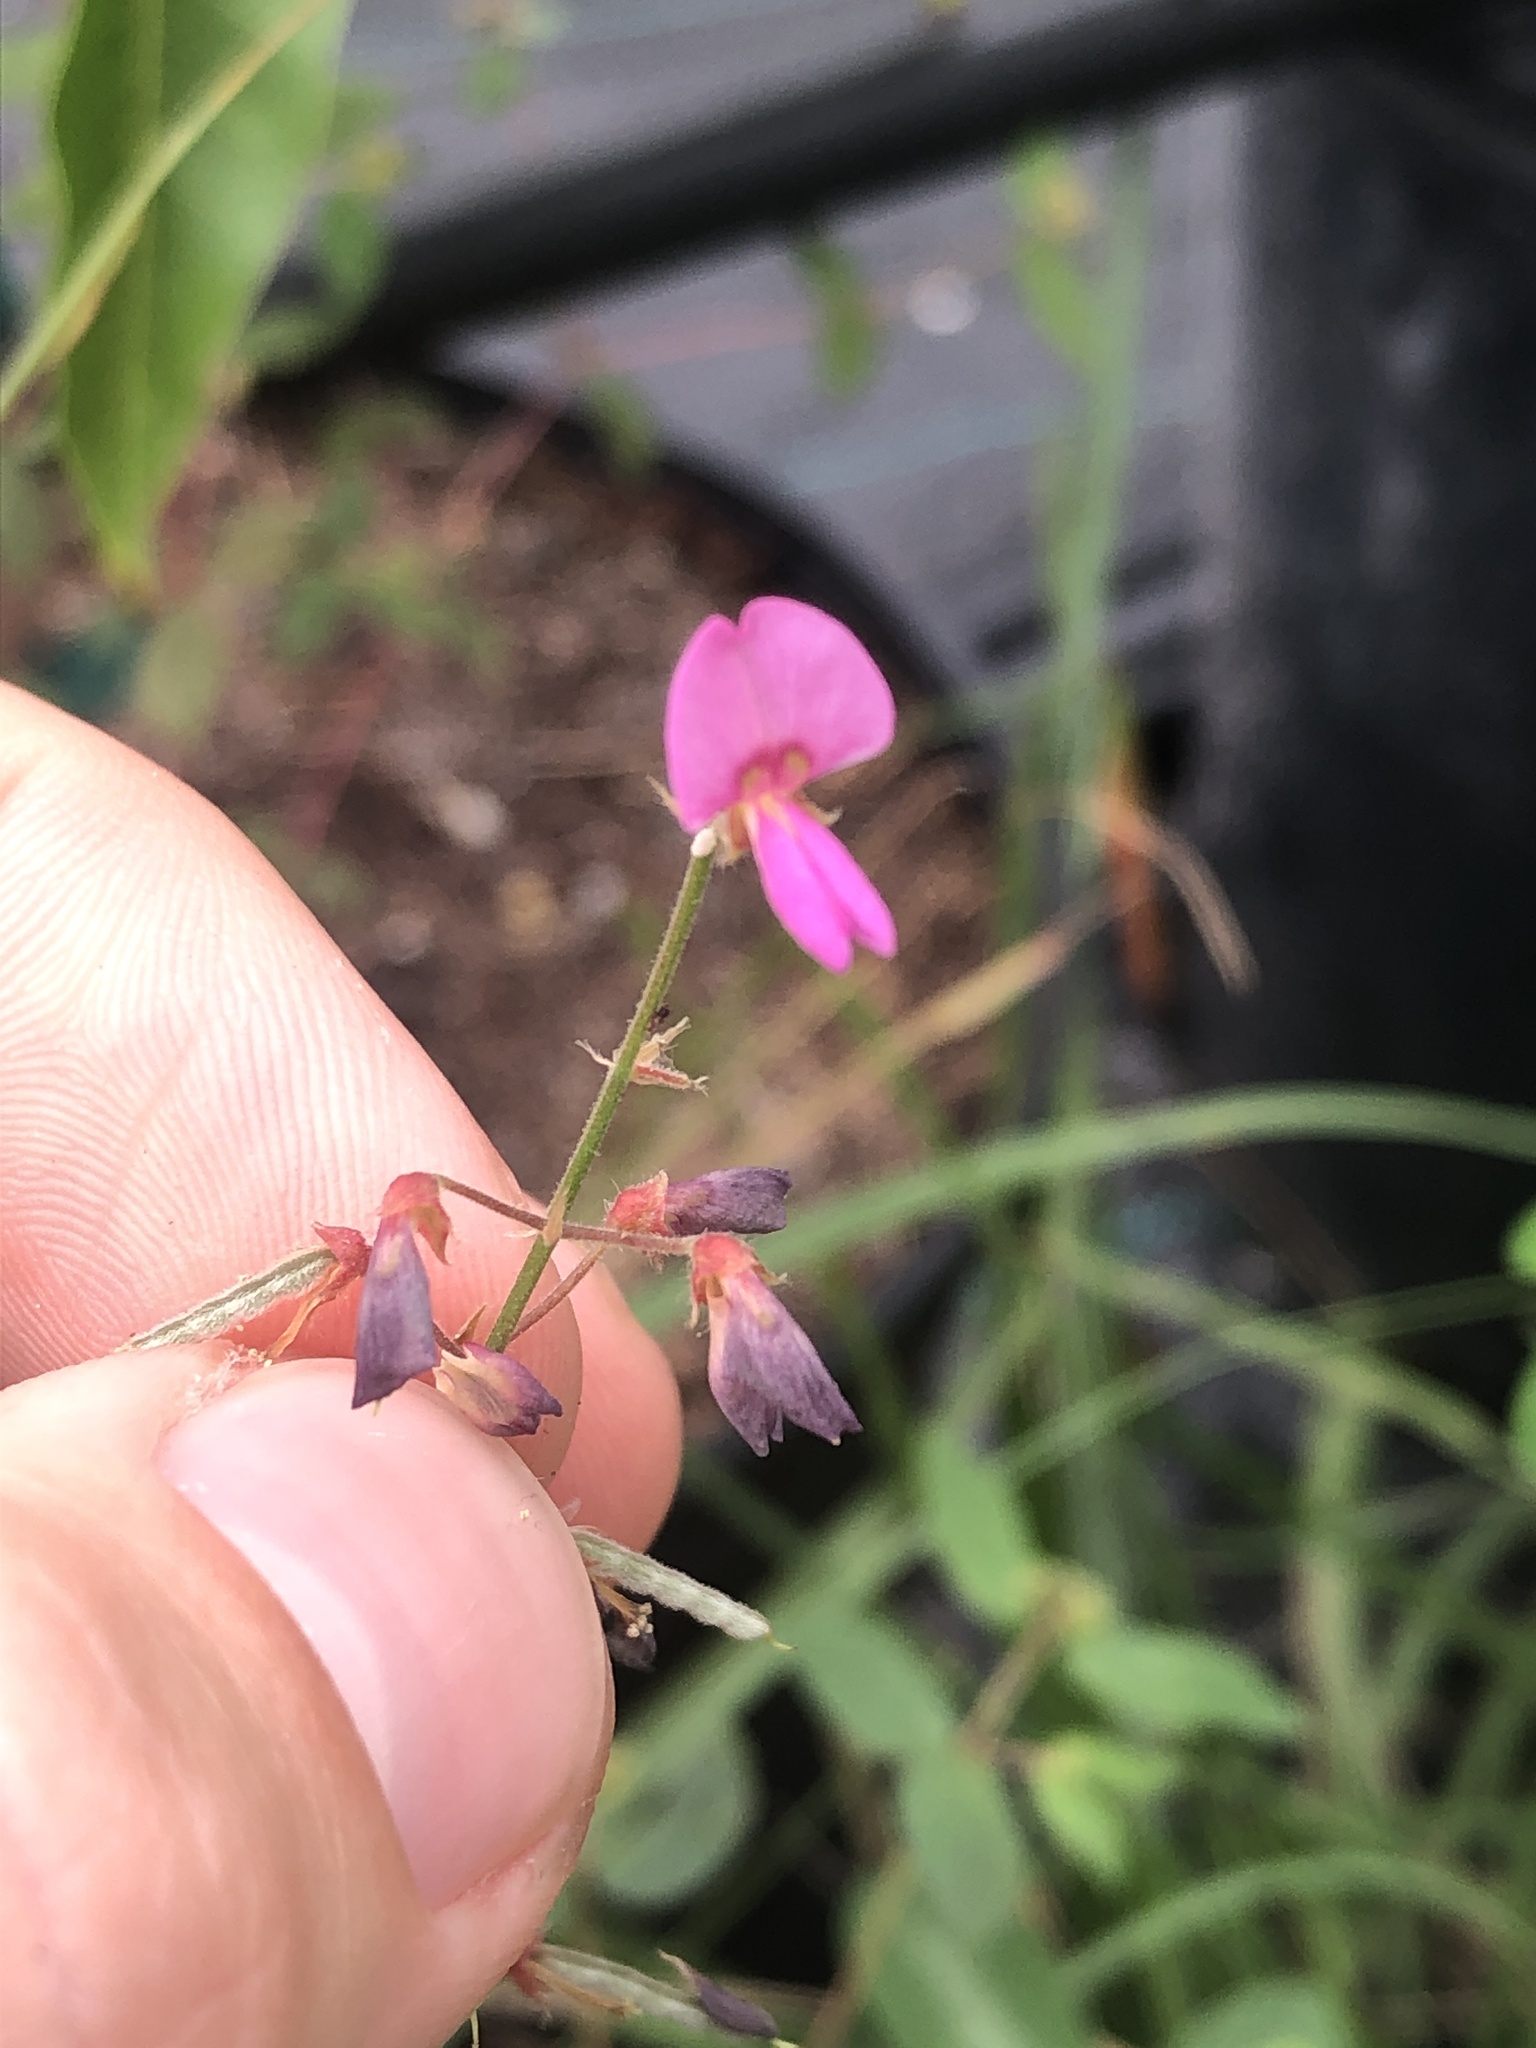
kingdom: Plantae
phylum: Tracheophyta
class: Magnoliopsida
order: Fabales
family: Fabaceae
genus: Desmodium
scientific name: Desmodium incanum
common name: Tickclover
